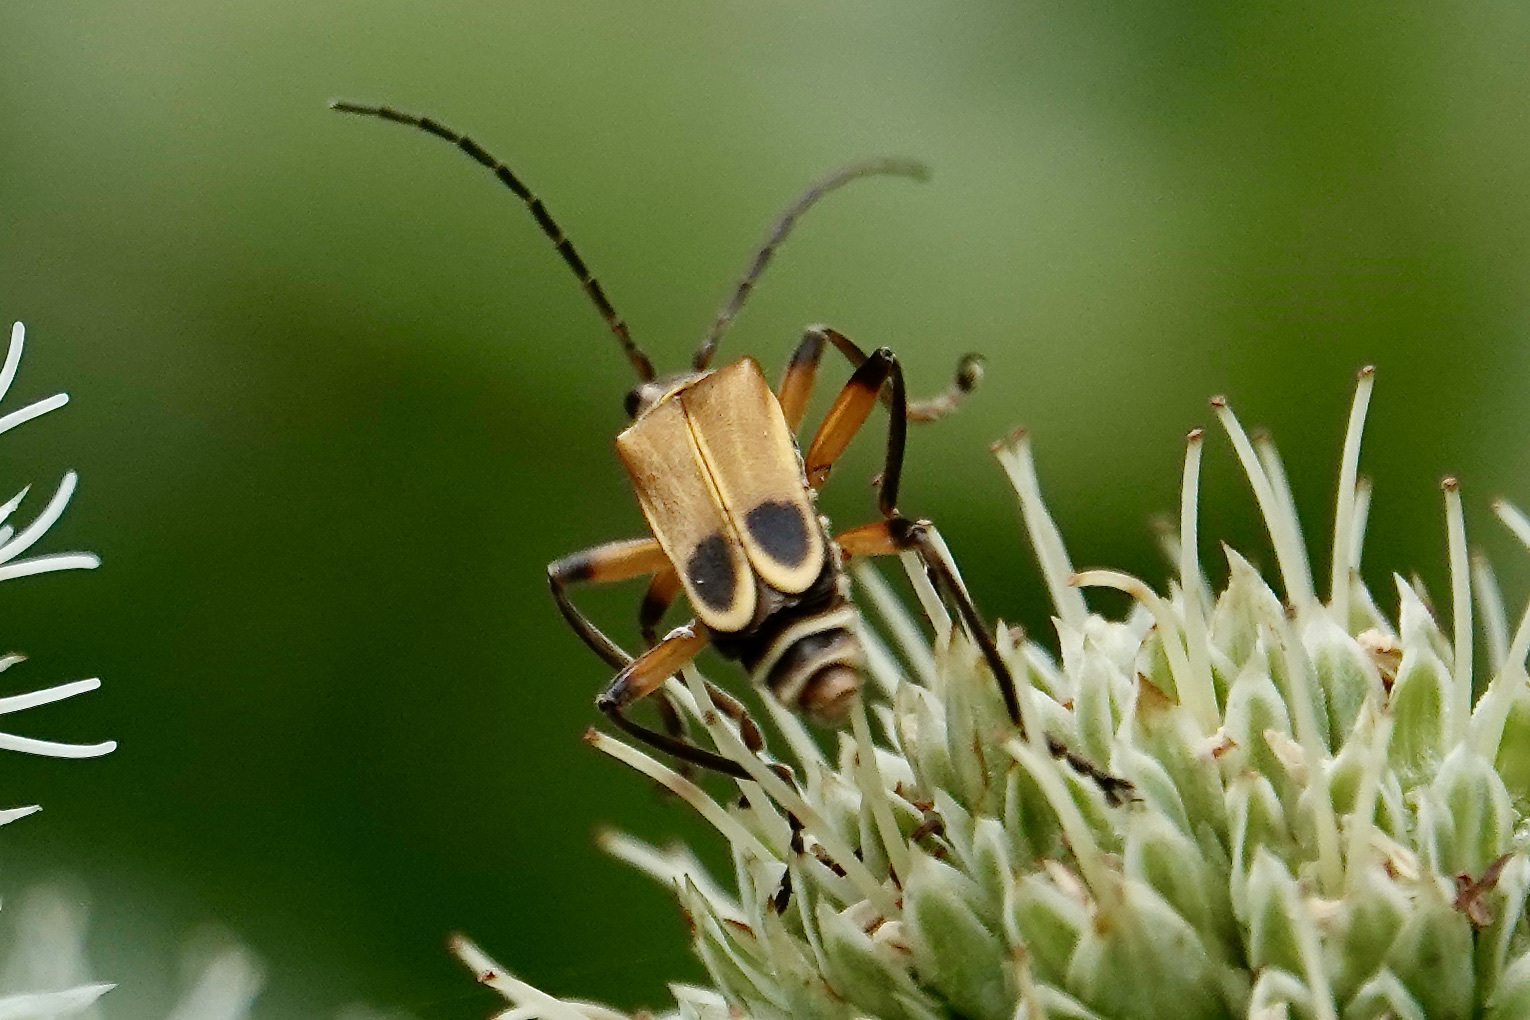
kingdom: Animalia
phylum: Arthropoda
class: Insecta
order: Coleoptera
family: Cantharidae
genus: Chauliognathus
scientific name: Chauliognathus marginatus
